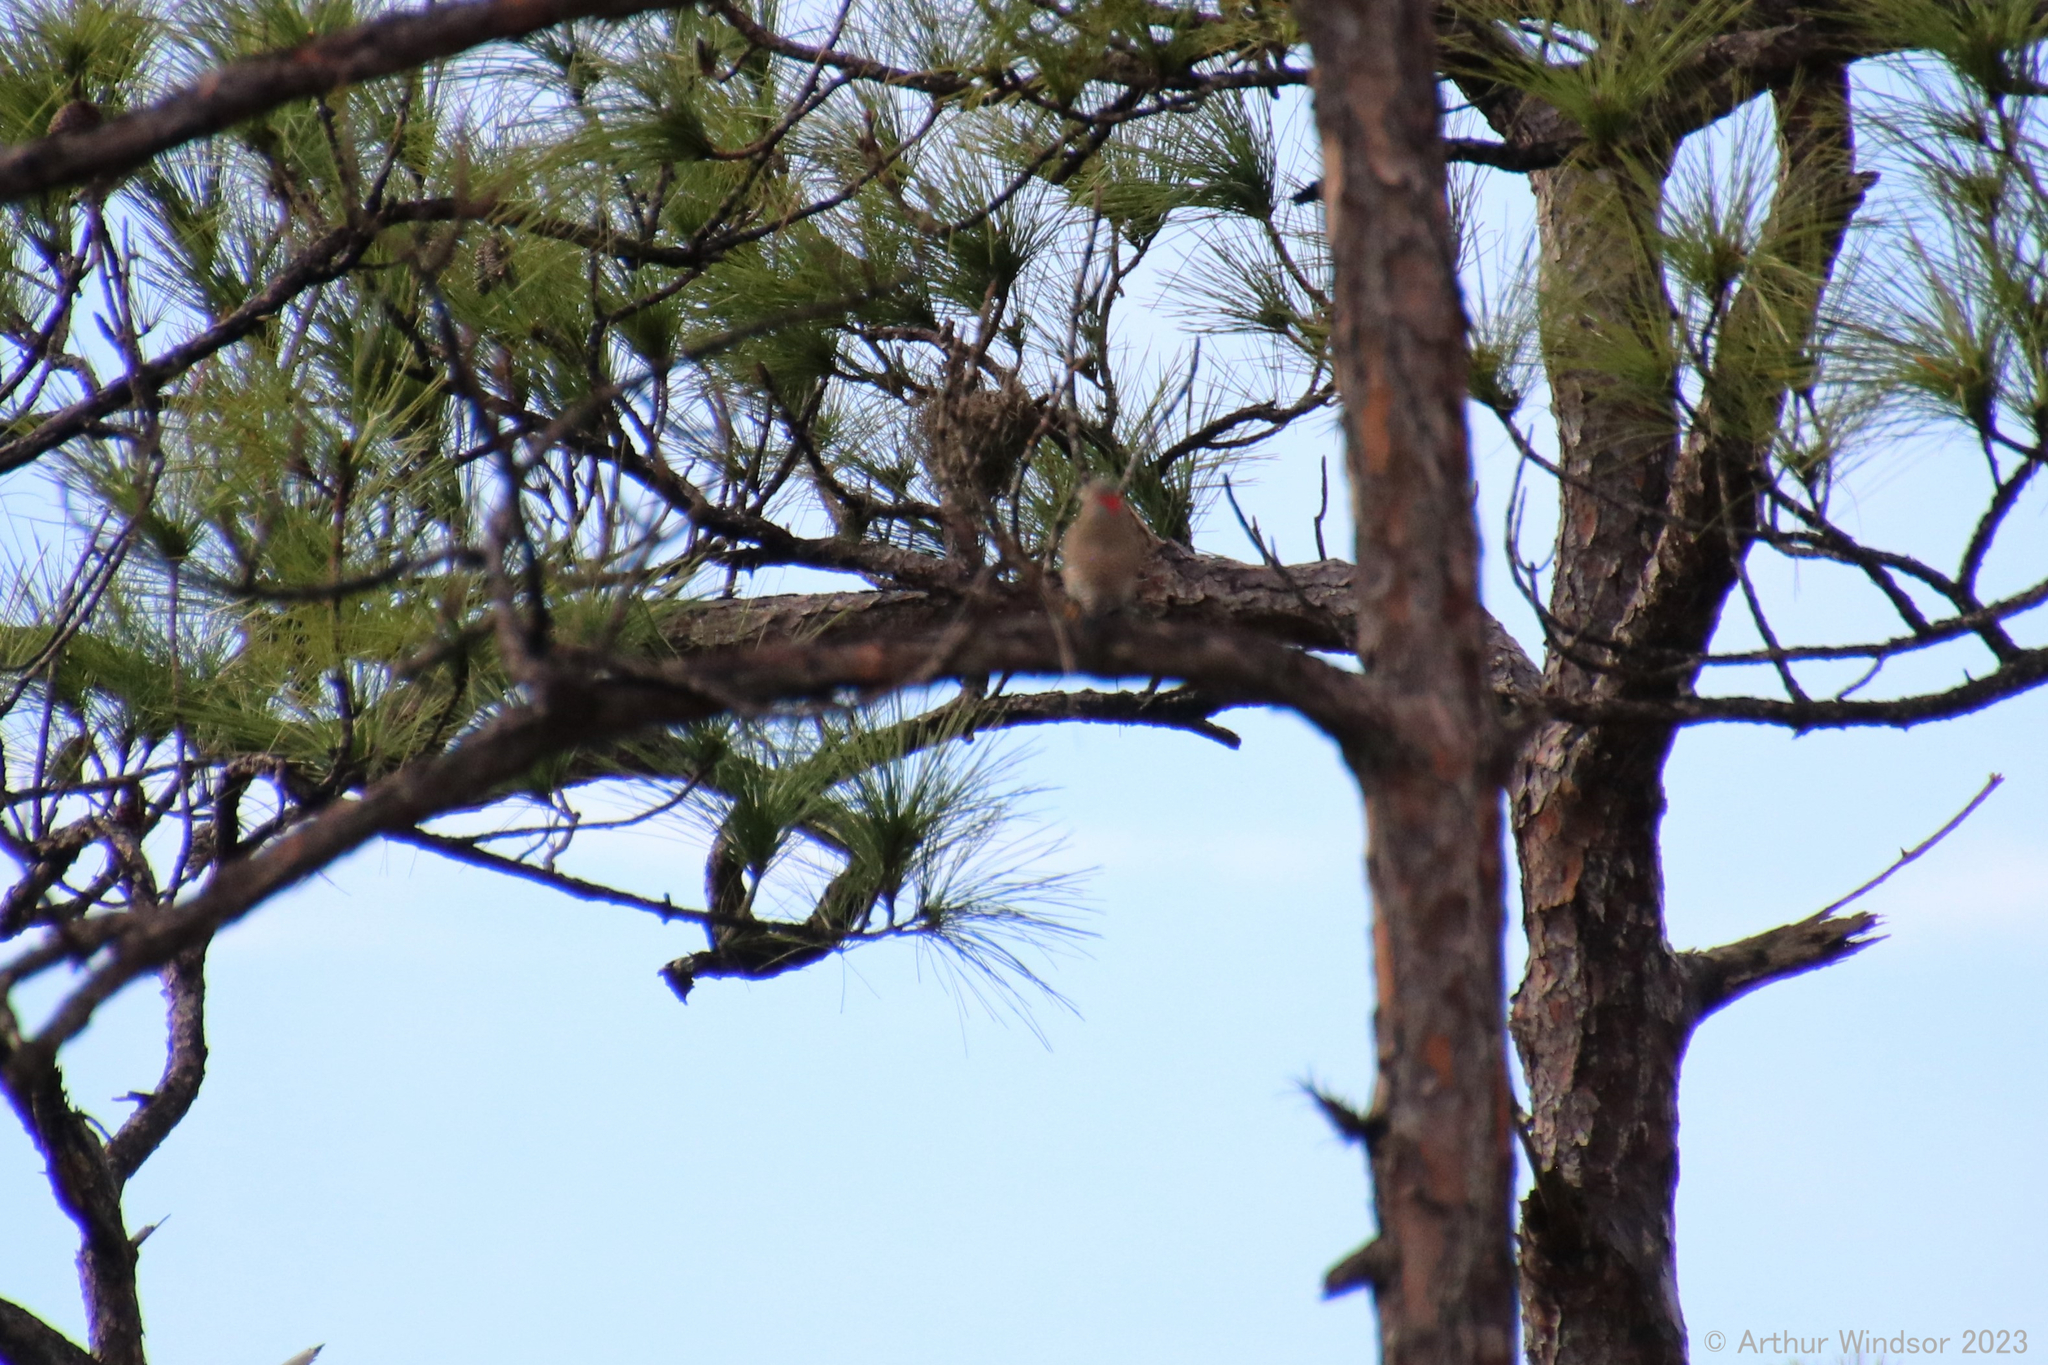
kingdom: Animalia
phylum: Chordata
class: Aves
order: Piciformes
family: Picidae
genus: Colaptes
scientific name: Colaptes auratus
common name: Northern flicker
